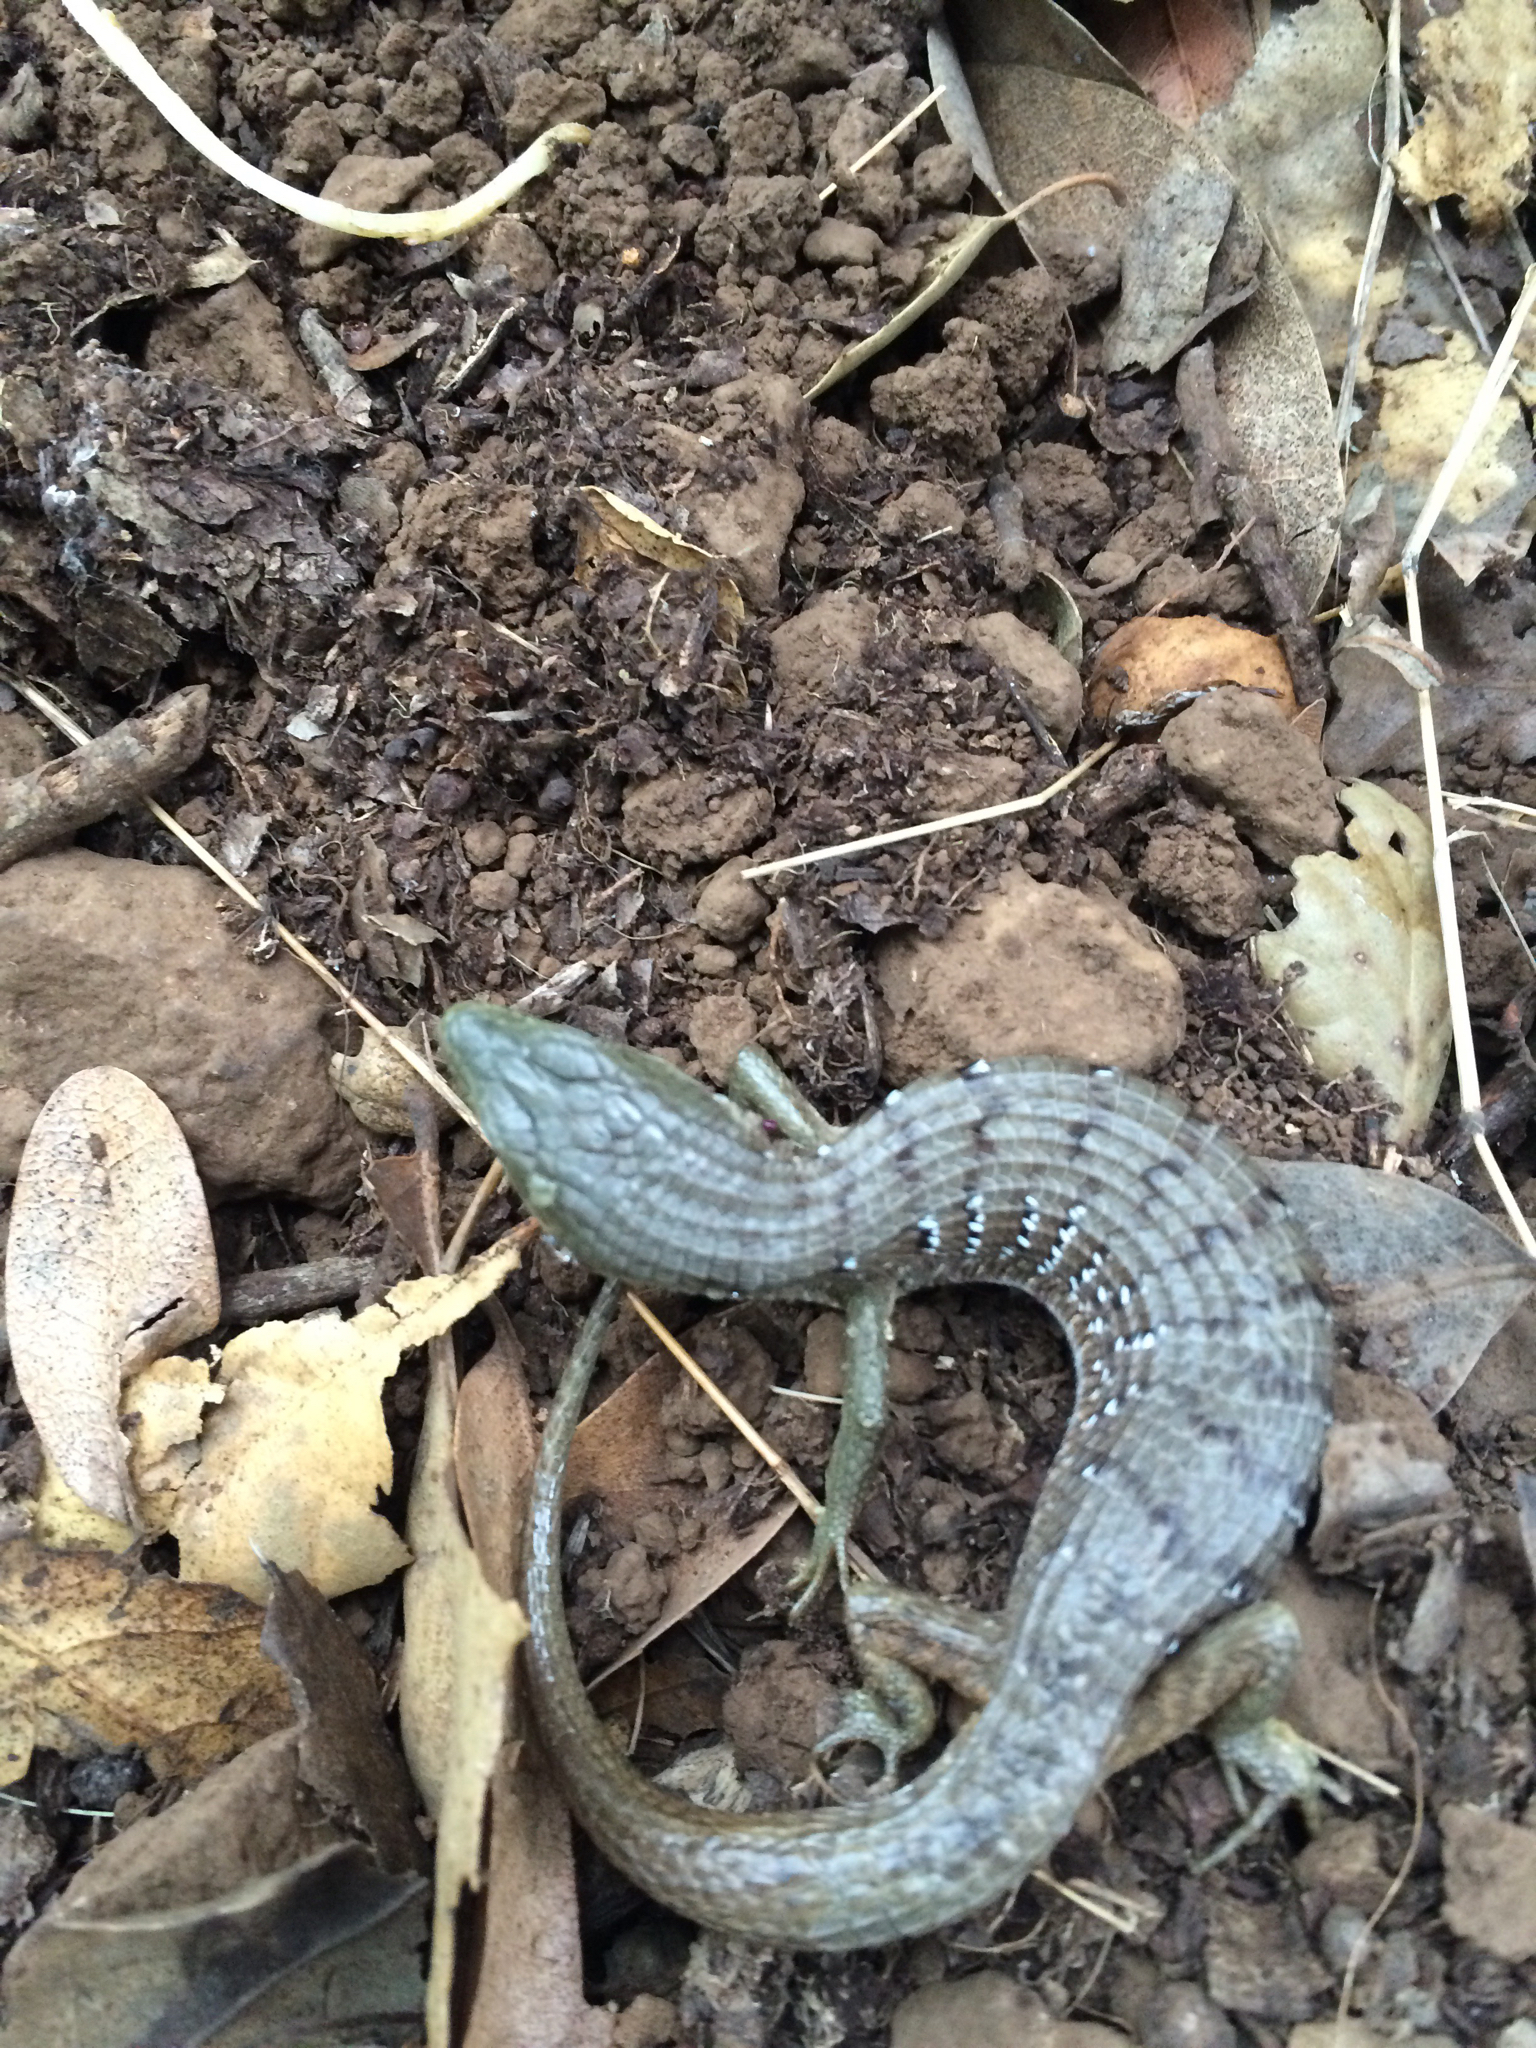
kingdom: Animalia
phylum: Chordata
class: Squamata
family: Anguidae
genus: Elgaria
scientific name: Elgaria multicarinata
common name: Southern alligator lizard
